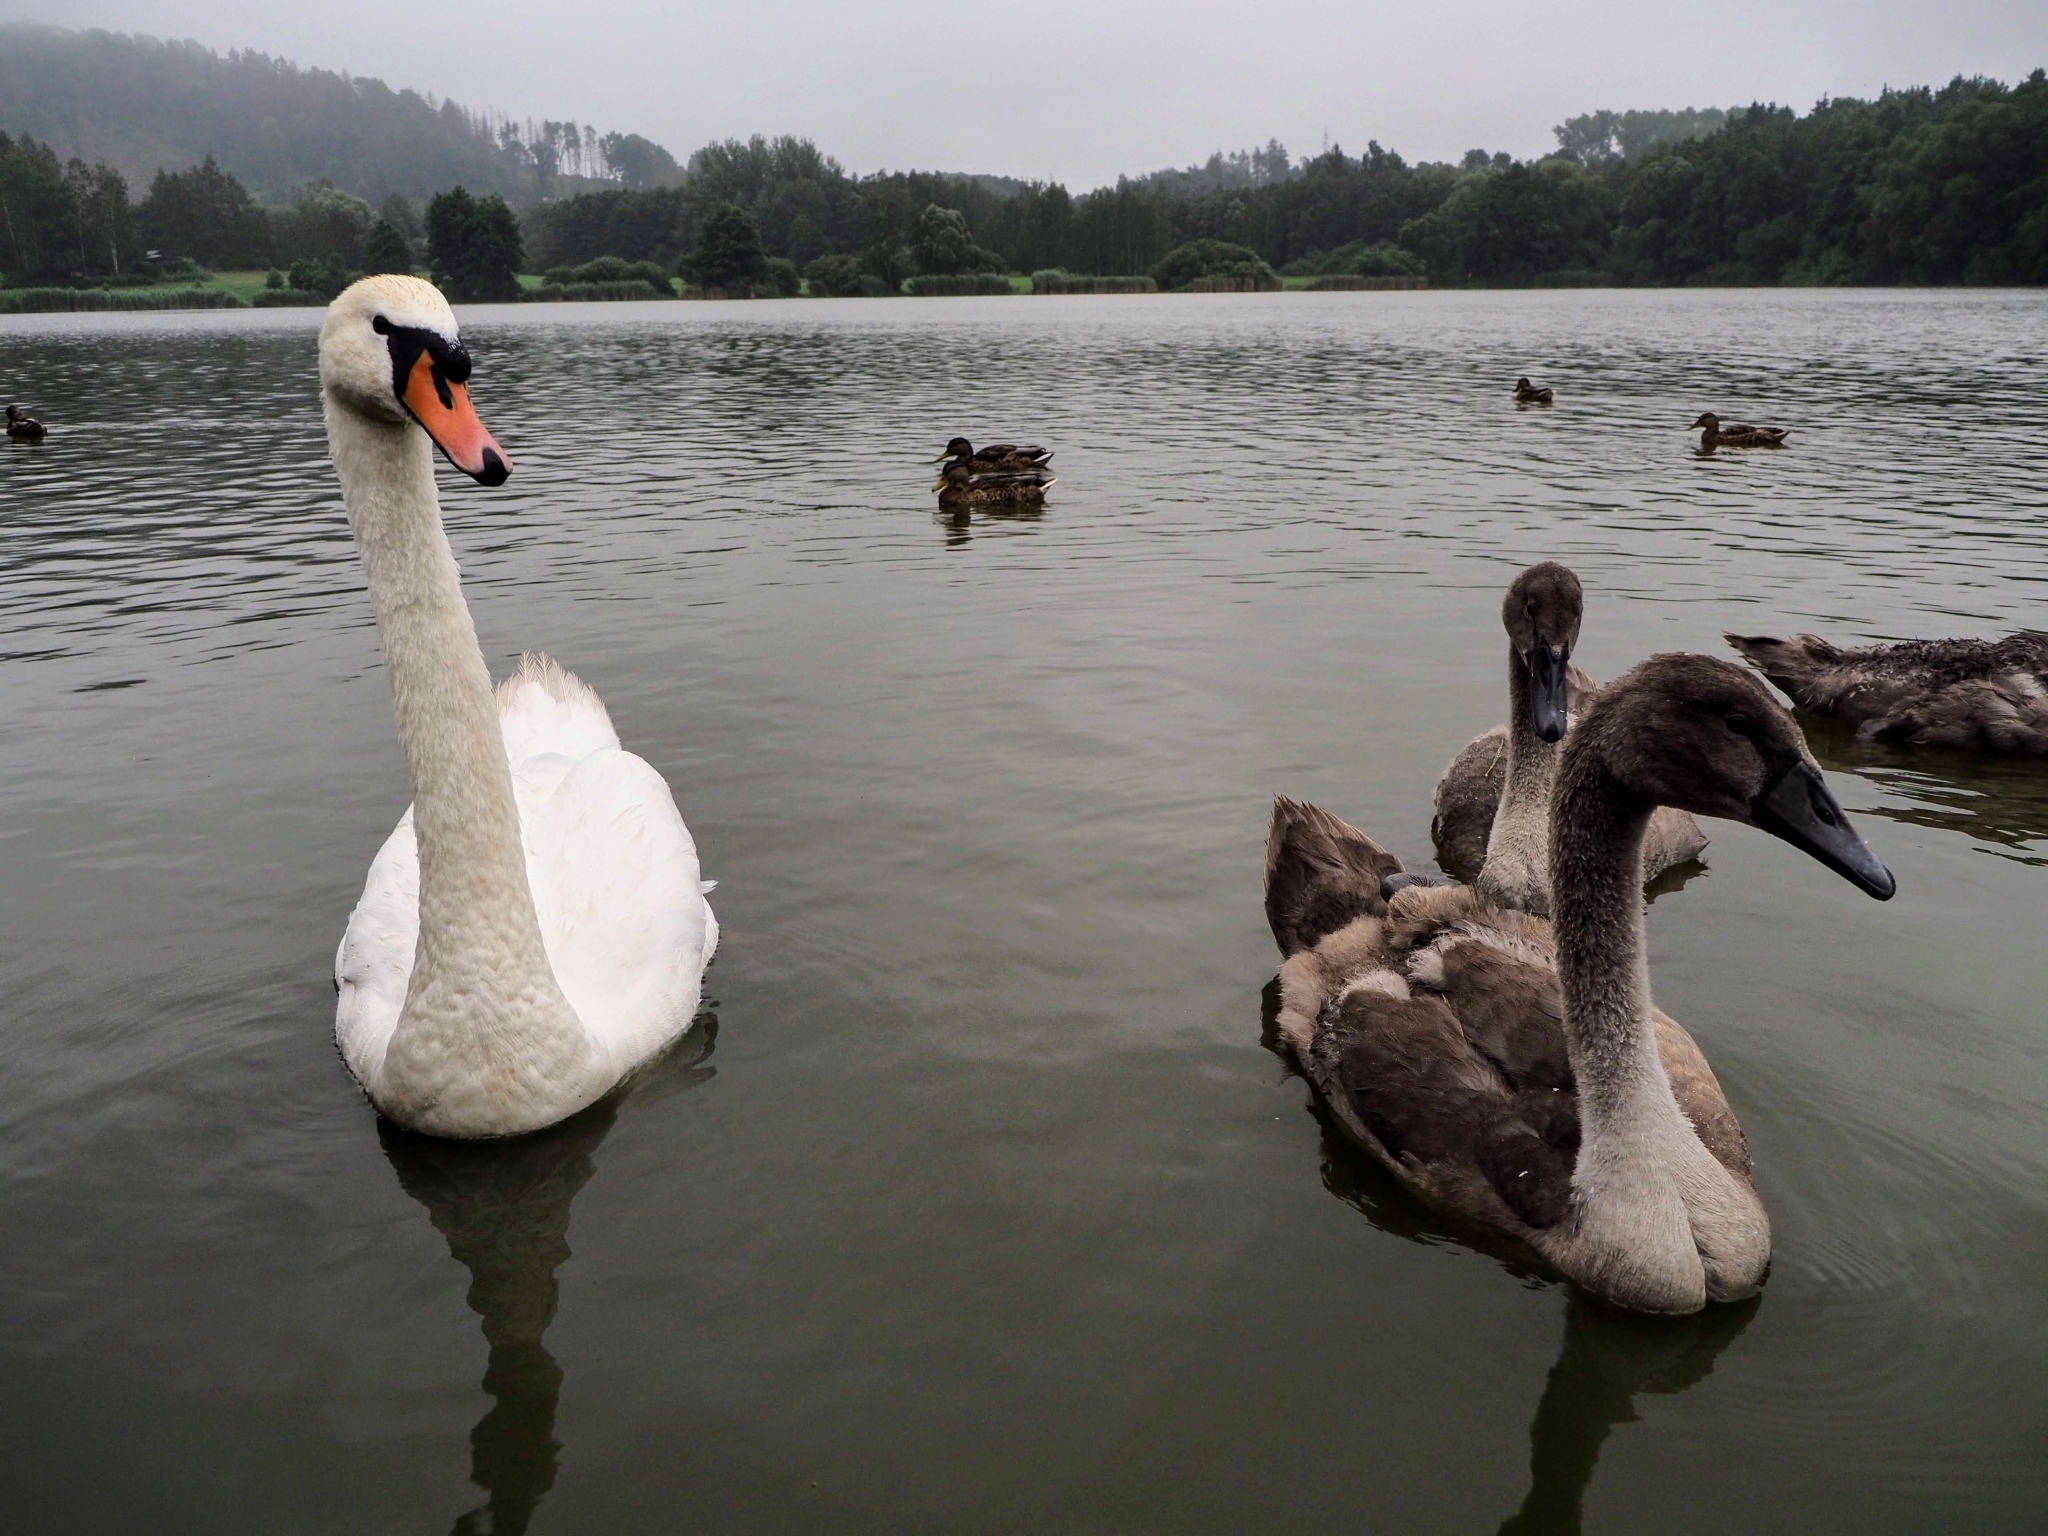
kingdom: Animalia
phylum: Chordata
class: Aves
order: Anseriformes
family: Anatidae
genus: Cygnus
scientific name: Cygnus olor
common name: Mute swan
